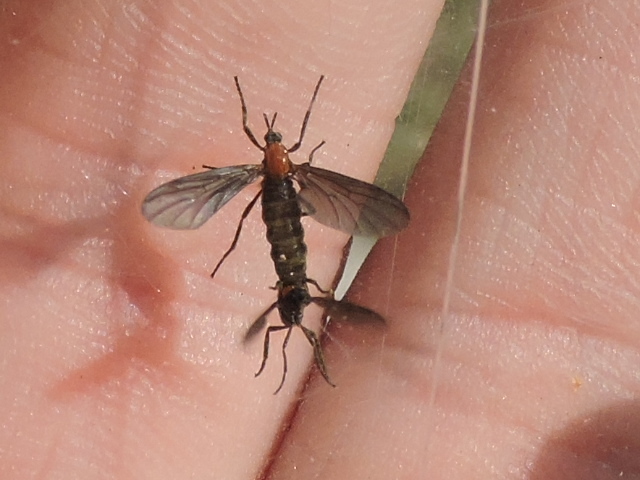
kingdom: Animalia
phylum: Arthropoda
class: Insecta
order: Diptera
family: Bibionidae
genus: Plecia
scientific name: Plecia nearctica
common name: March fly
